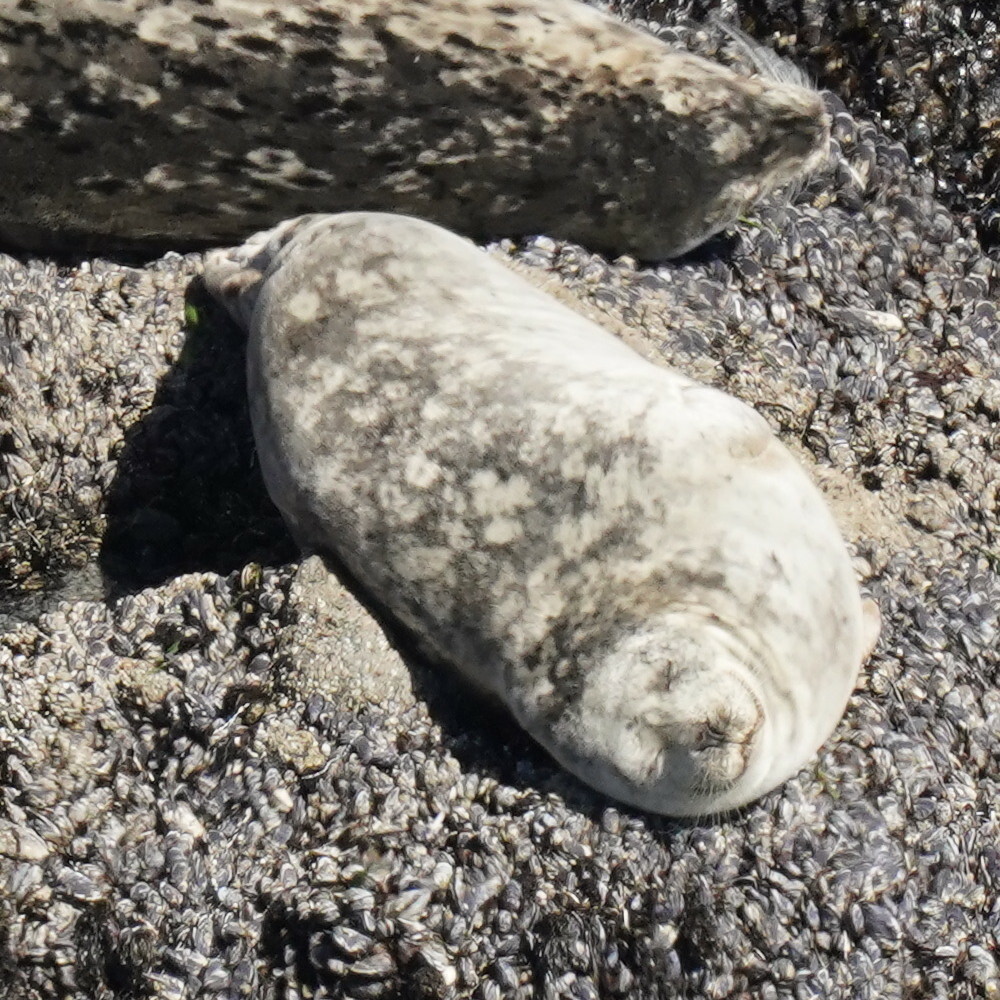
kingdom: Animalia
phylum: Chordata
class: Mammalia
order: Carnivora
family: Phocidae
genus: Phoca
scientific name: Phoca vitulina
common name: Harbor seal
